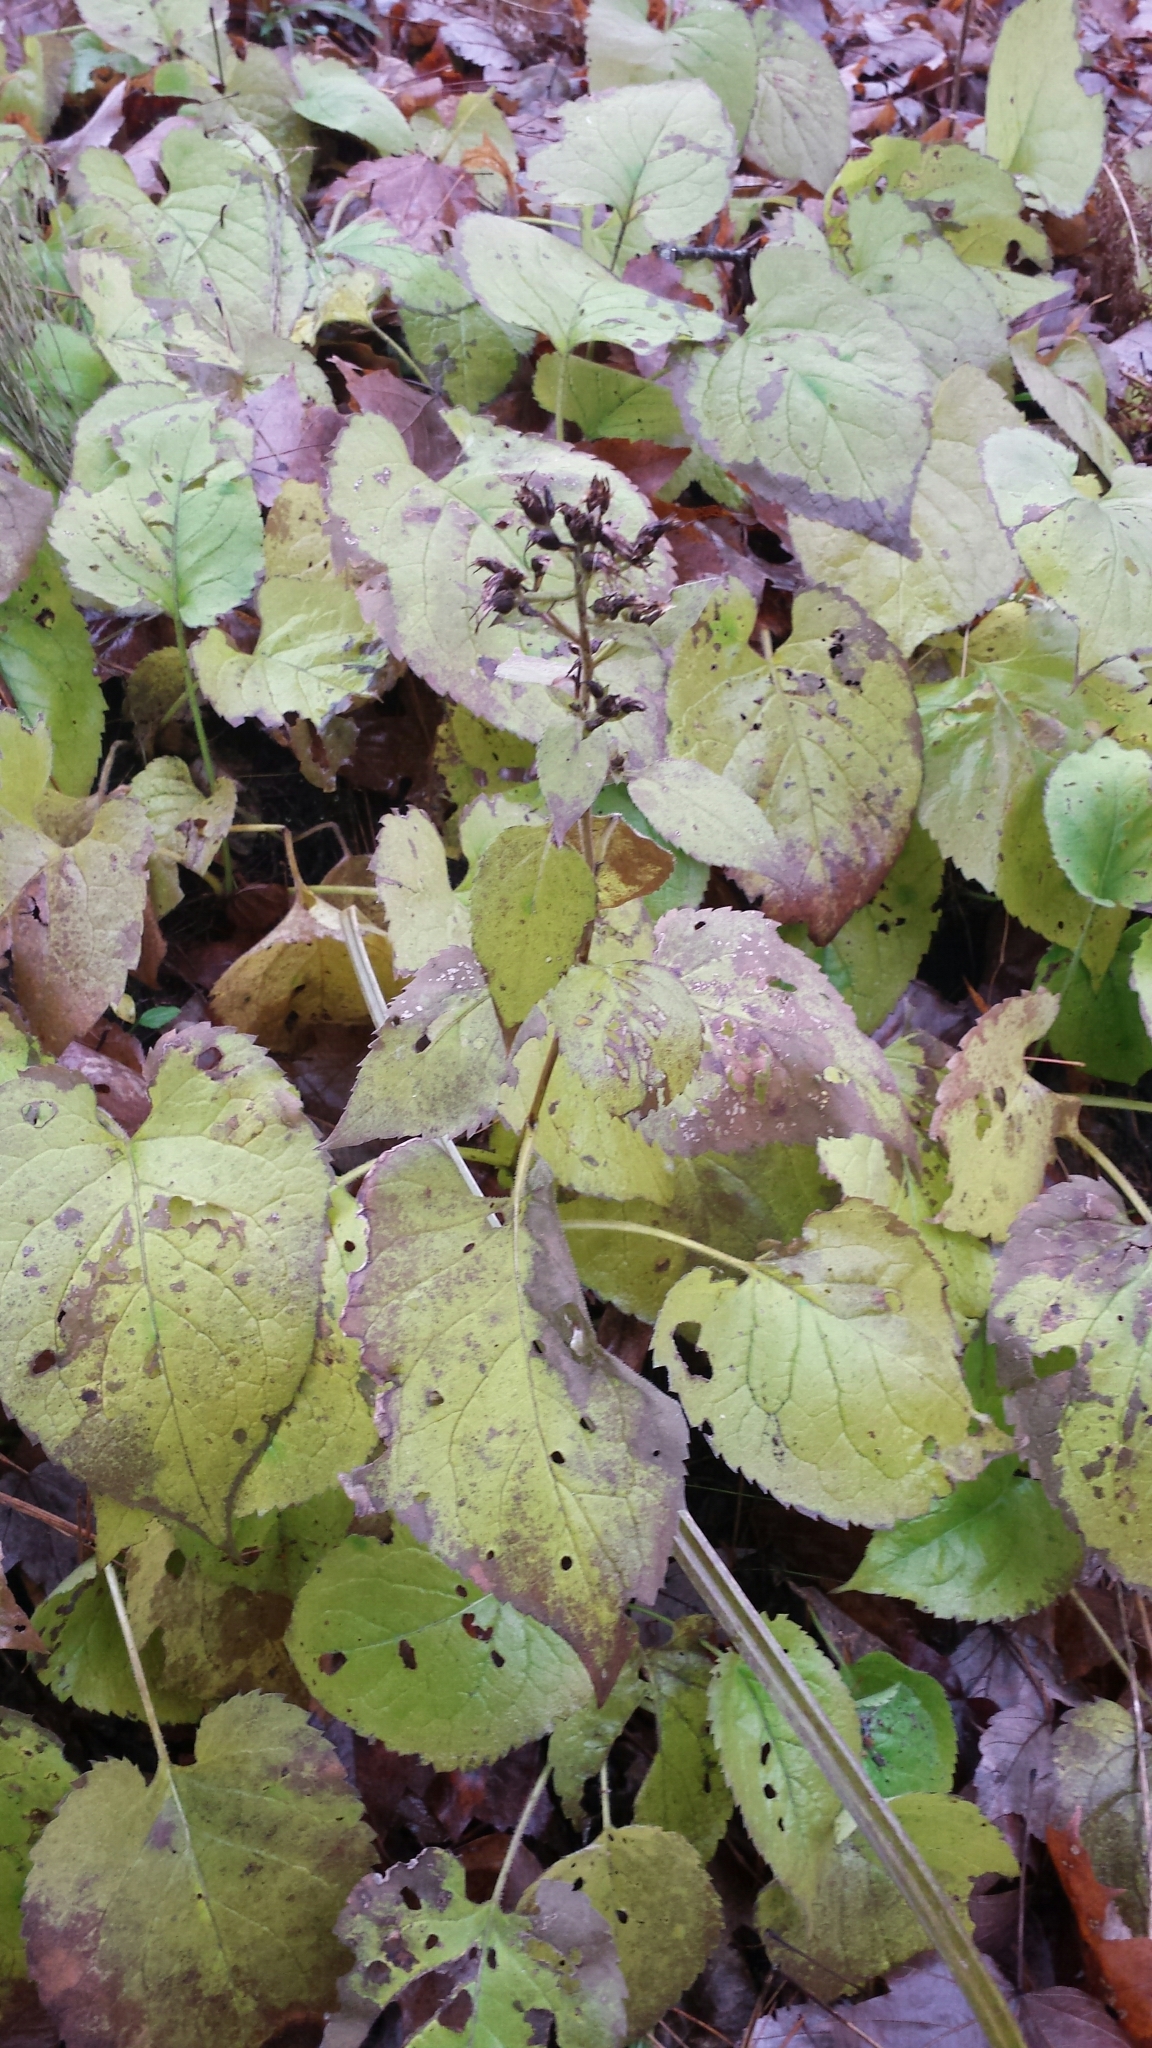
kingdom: Plantae
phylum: Tracheophyta
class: Magnoliopsida
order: Asterales
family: Asteraceae
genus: Eurybia
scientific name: Eurybia macrophylla
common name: Big-leaved aster
